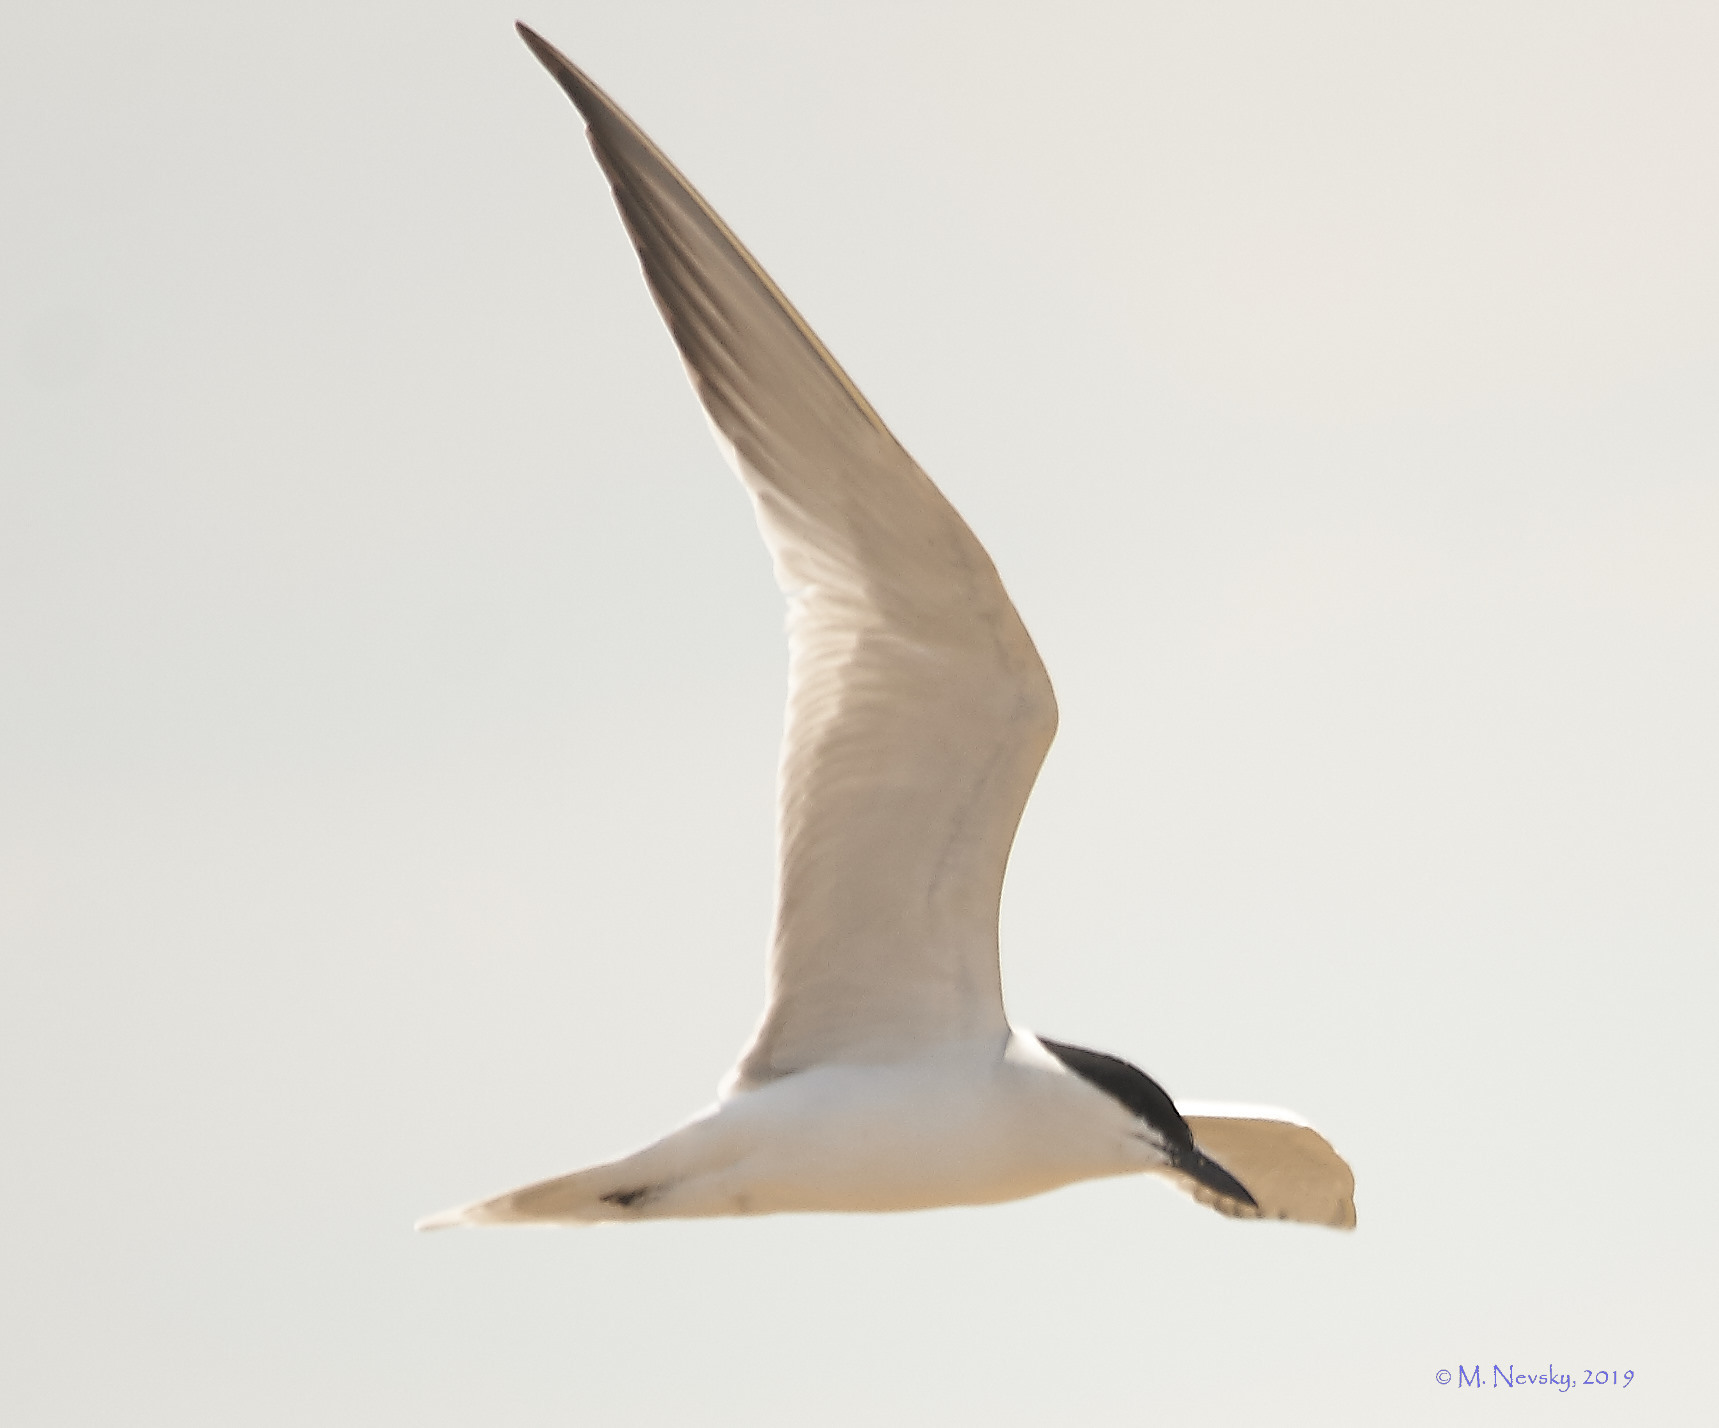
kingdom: Animalia
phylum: Chordata
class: Aves
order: Charadriiformes
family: Laridae
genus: Gelochelidon
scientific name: Gelochelidon nilotica
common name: Gull-billed tern
